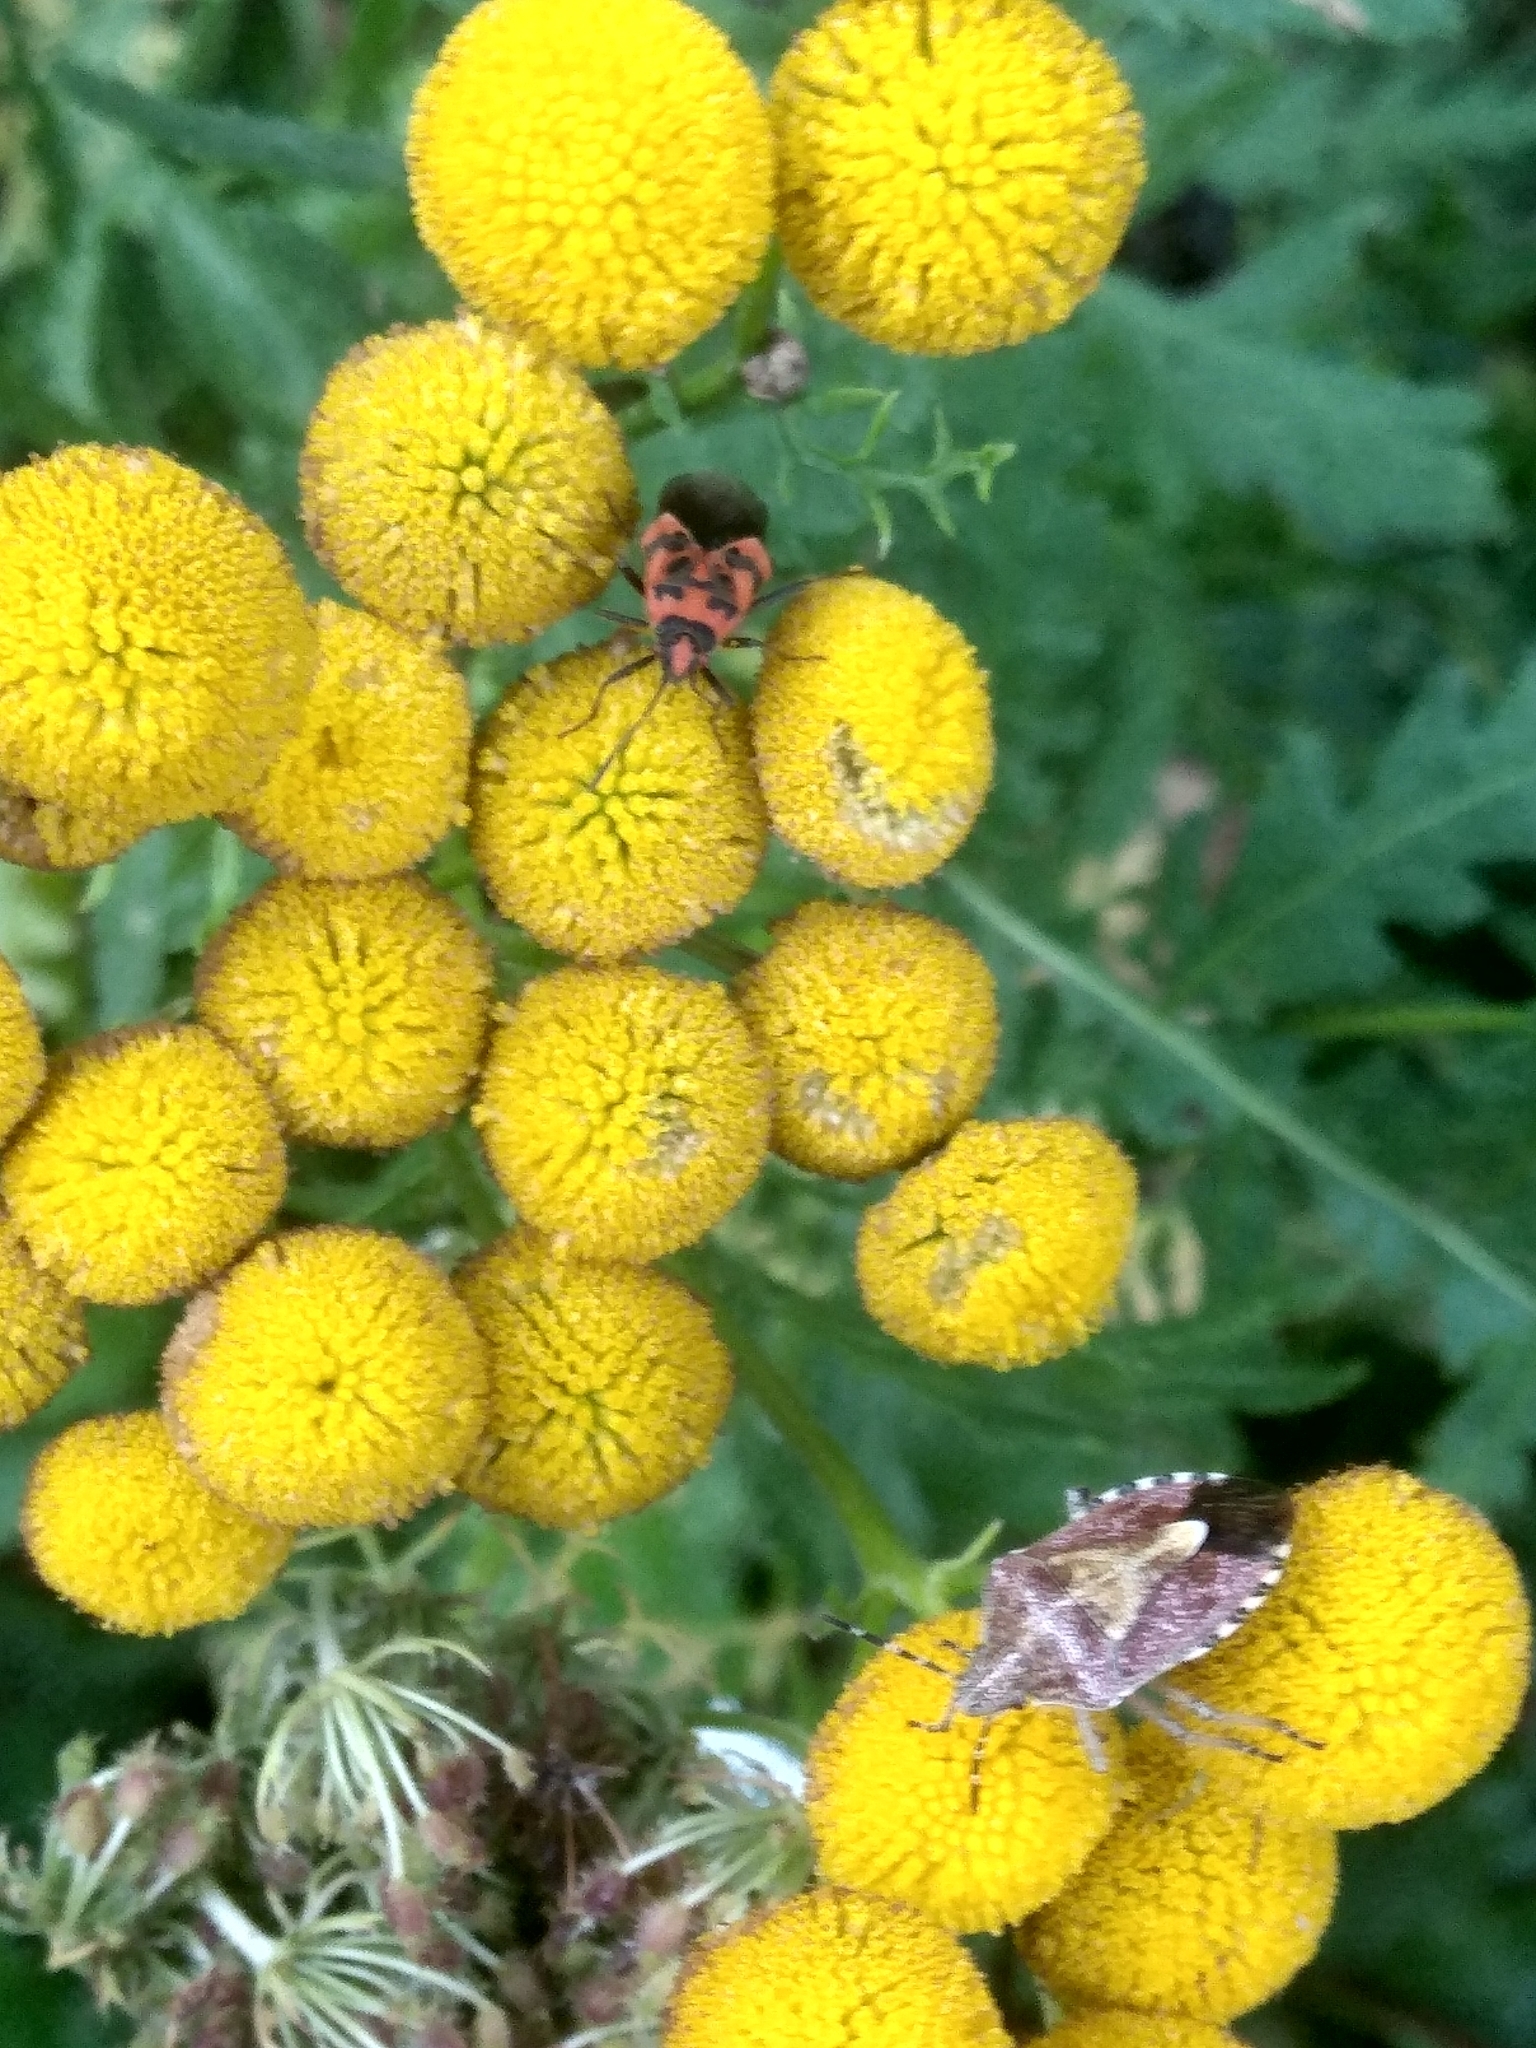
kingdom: Animalia
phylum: Arthropoda
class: Insecta
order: Hemiptera
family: Rhopalidae
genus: Corizus
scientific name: Corizus hyoscyami
